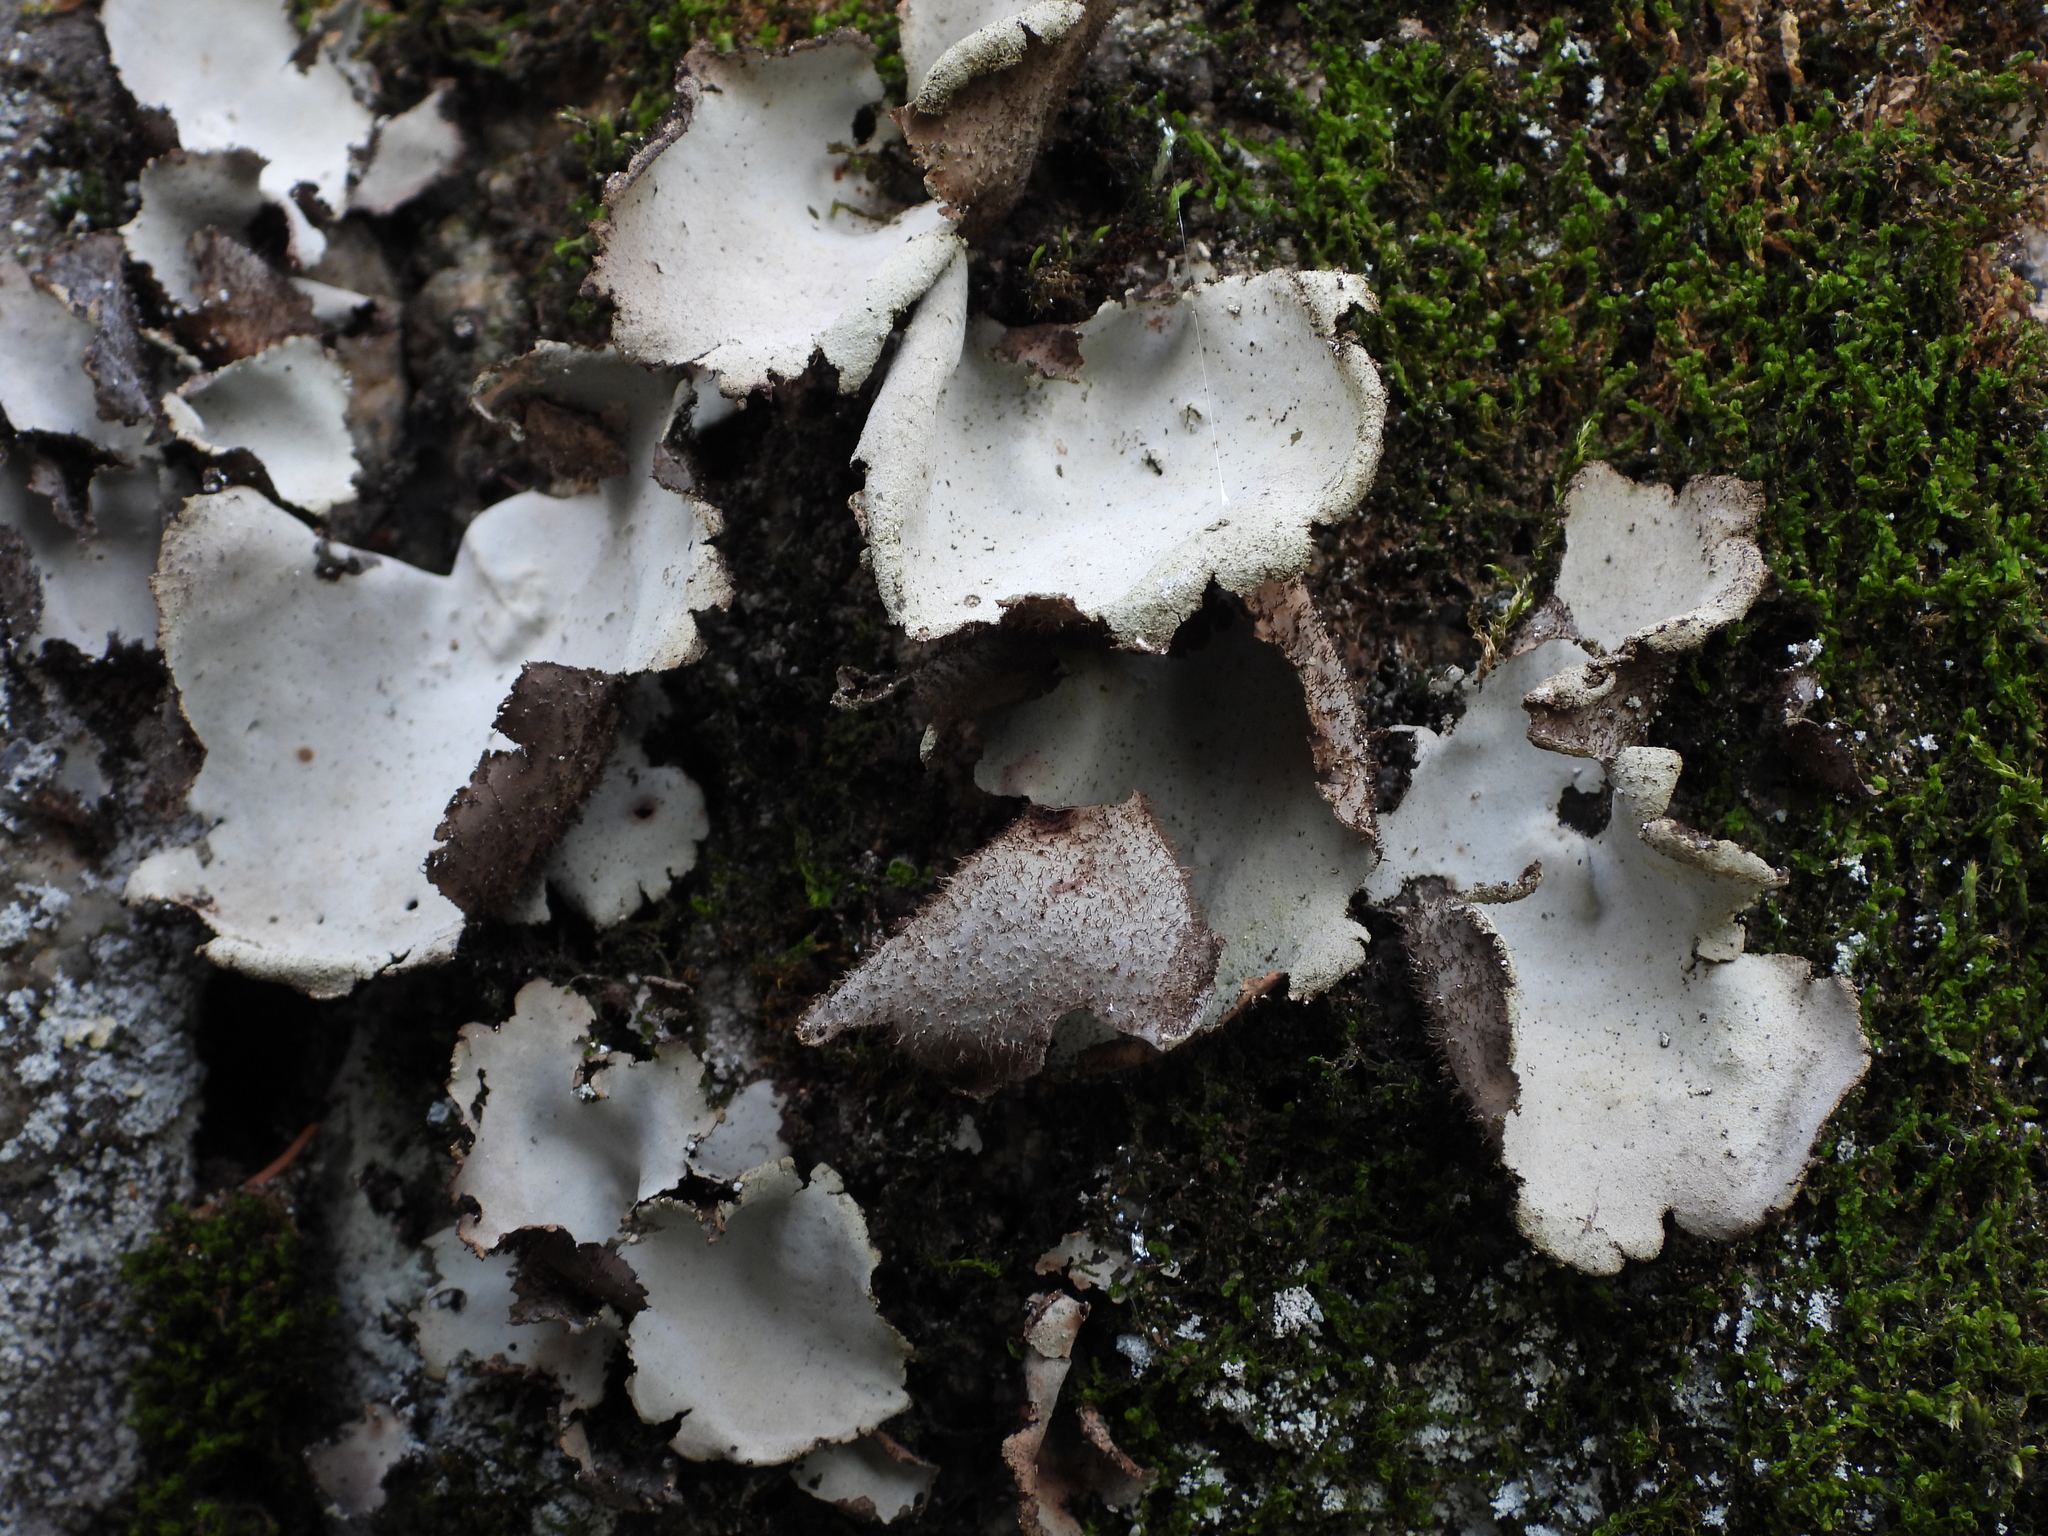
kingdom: Fungi
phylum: Ascomycota
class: Lecanoromycetes
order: Umbilicariales
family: Umbilicariaceae
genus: Umbilicaria
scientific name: Umbilicaria hirsuta
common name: Granulating rocktripe lichen
